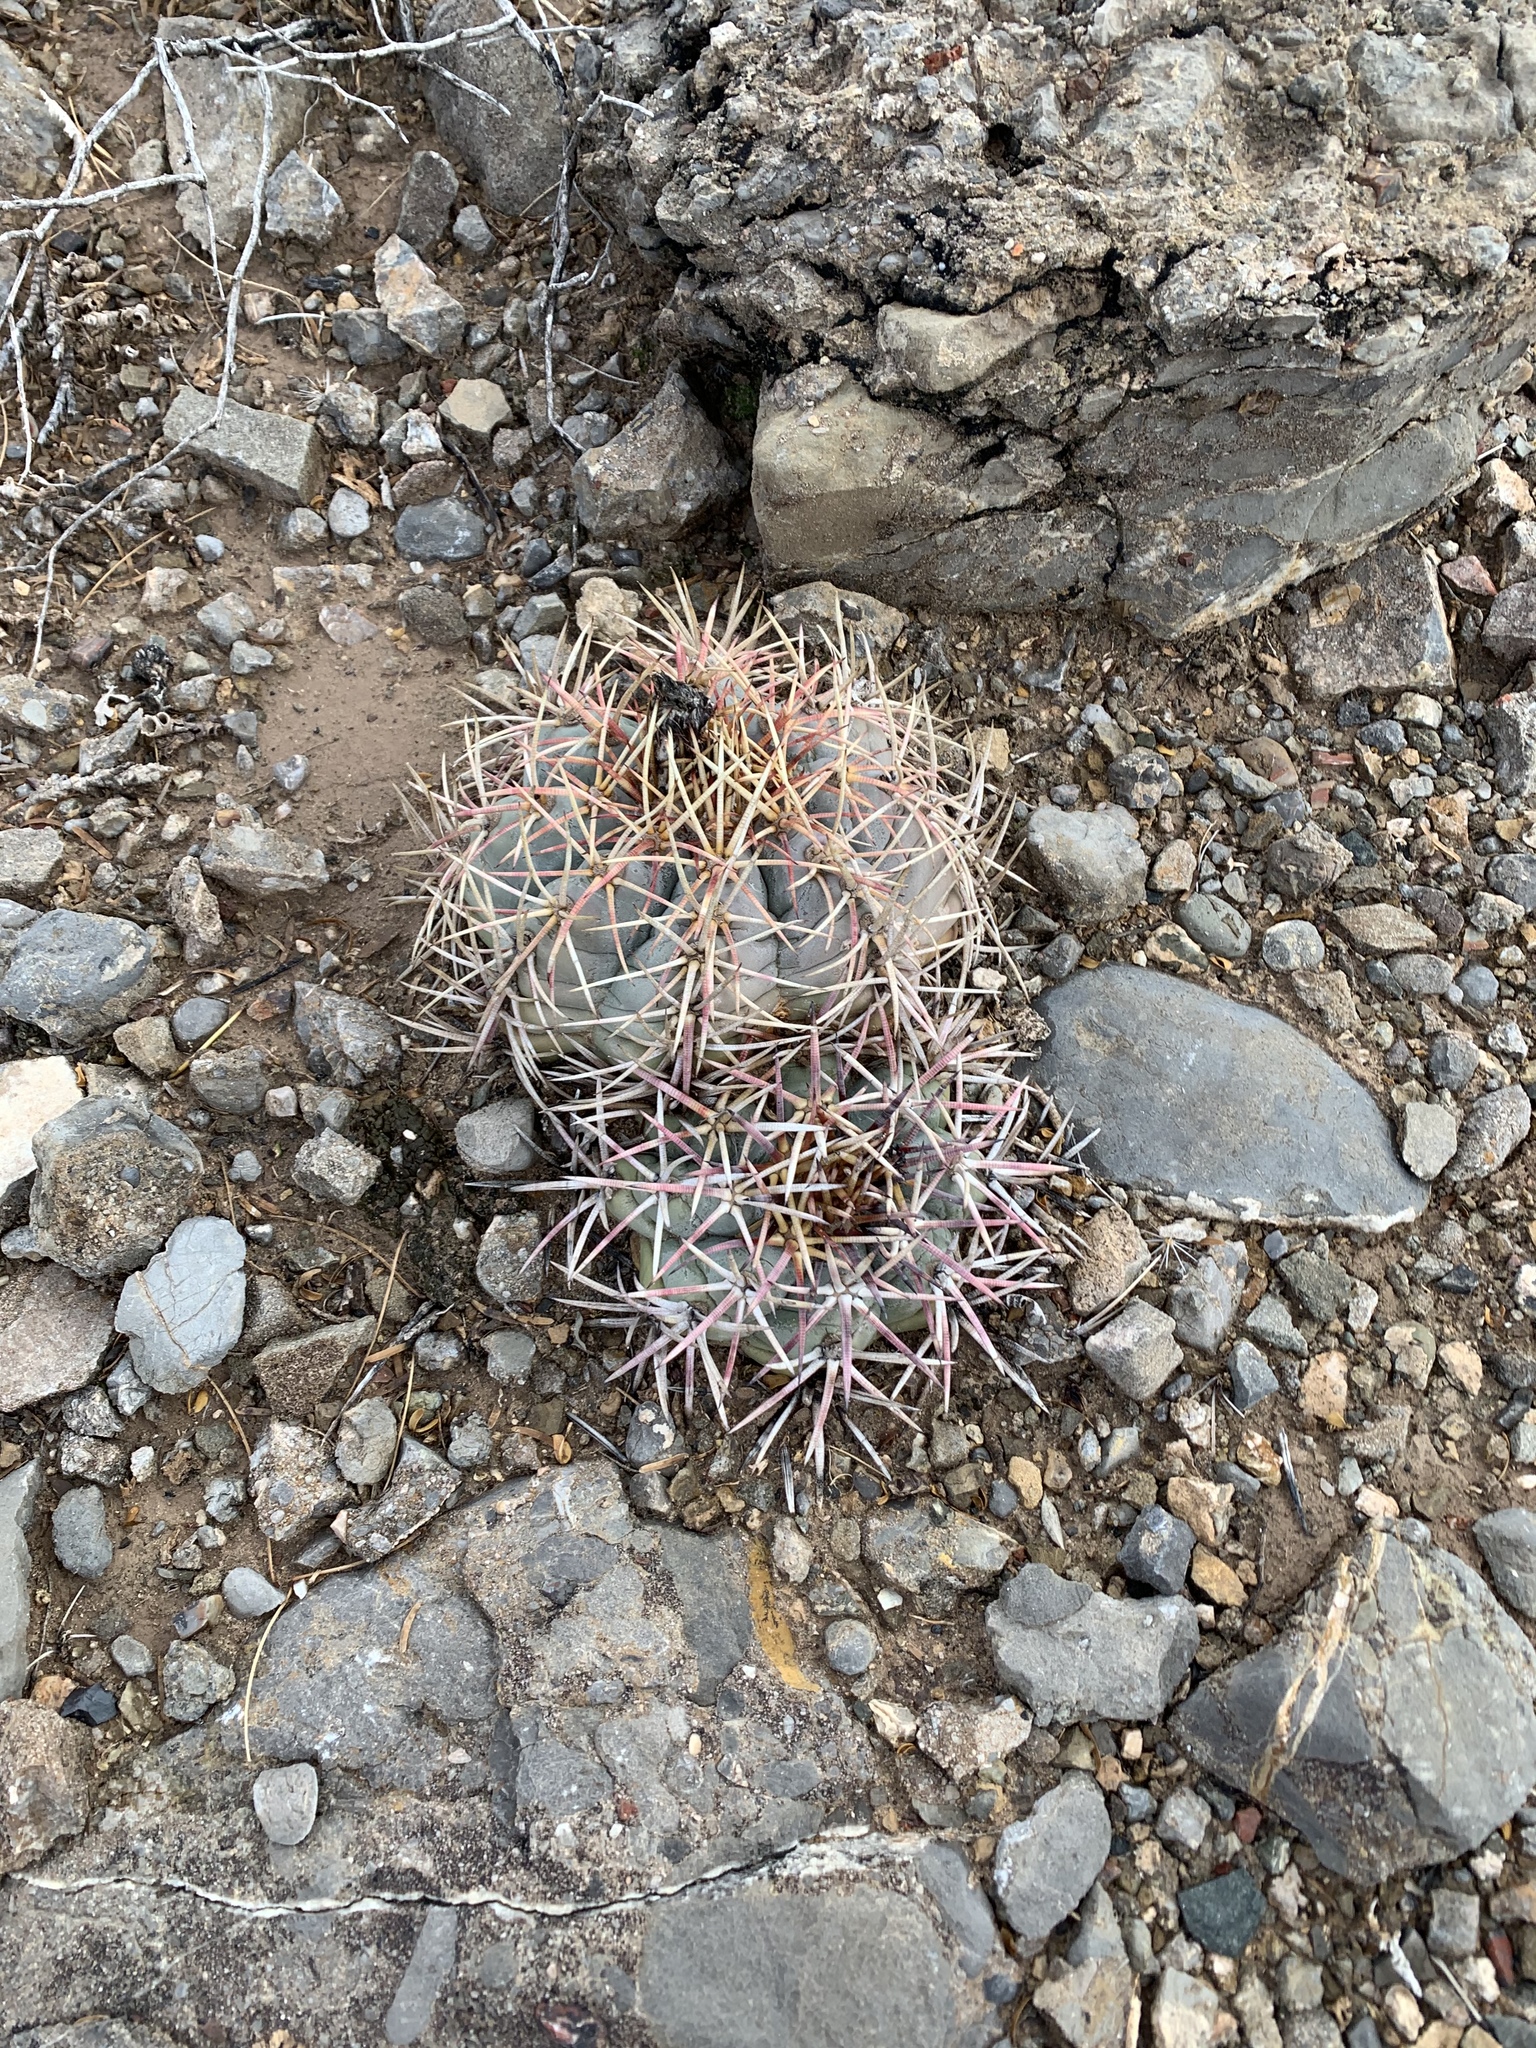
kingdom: Plantae
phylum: Tracheophyta
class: Magnoliopsida
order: Caryophyllales
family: Cactaceae
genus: Echinocactus
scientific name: Echinocactus horizonthalonius
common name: Devilshead
